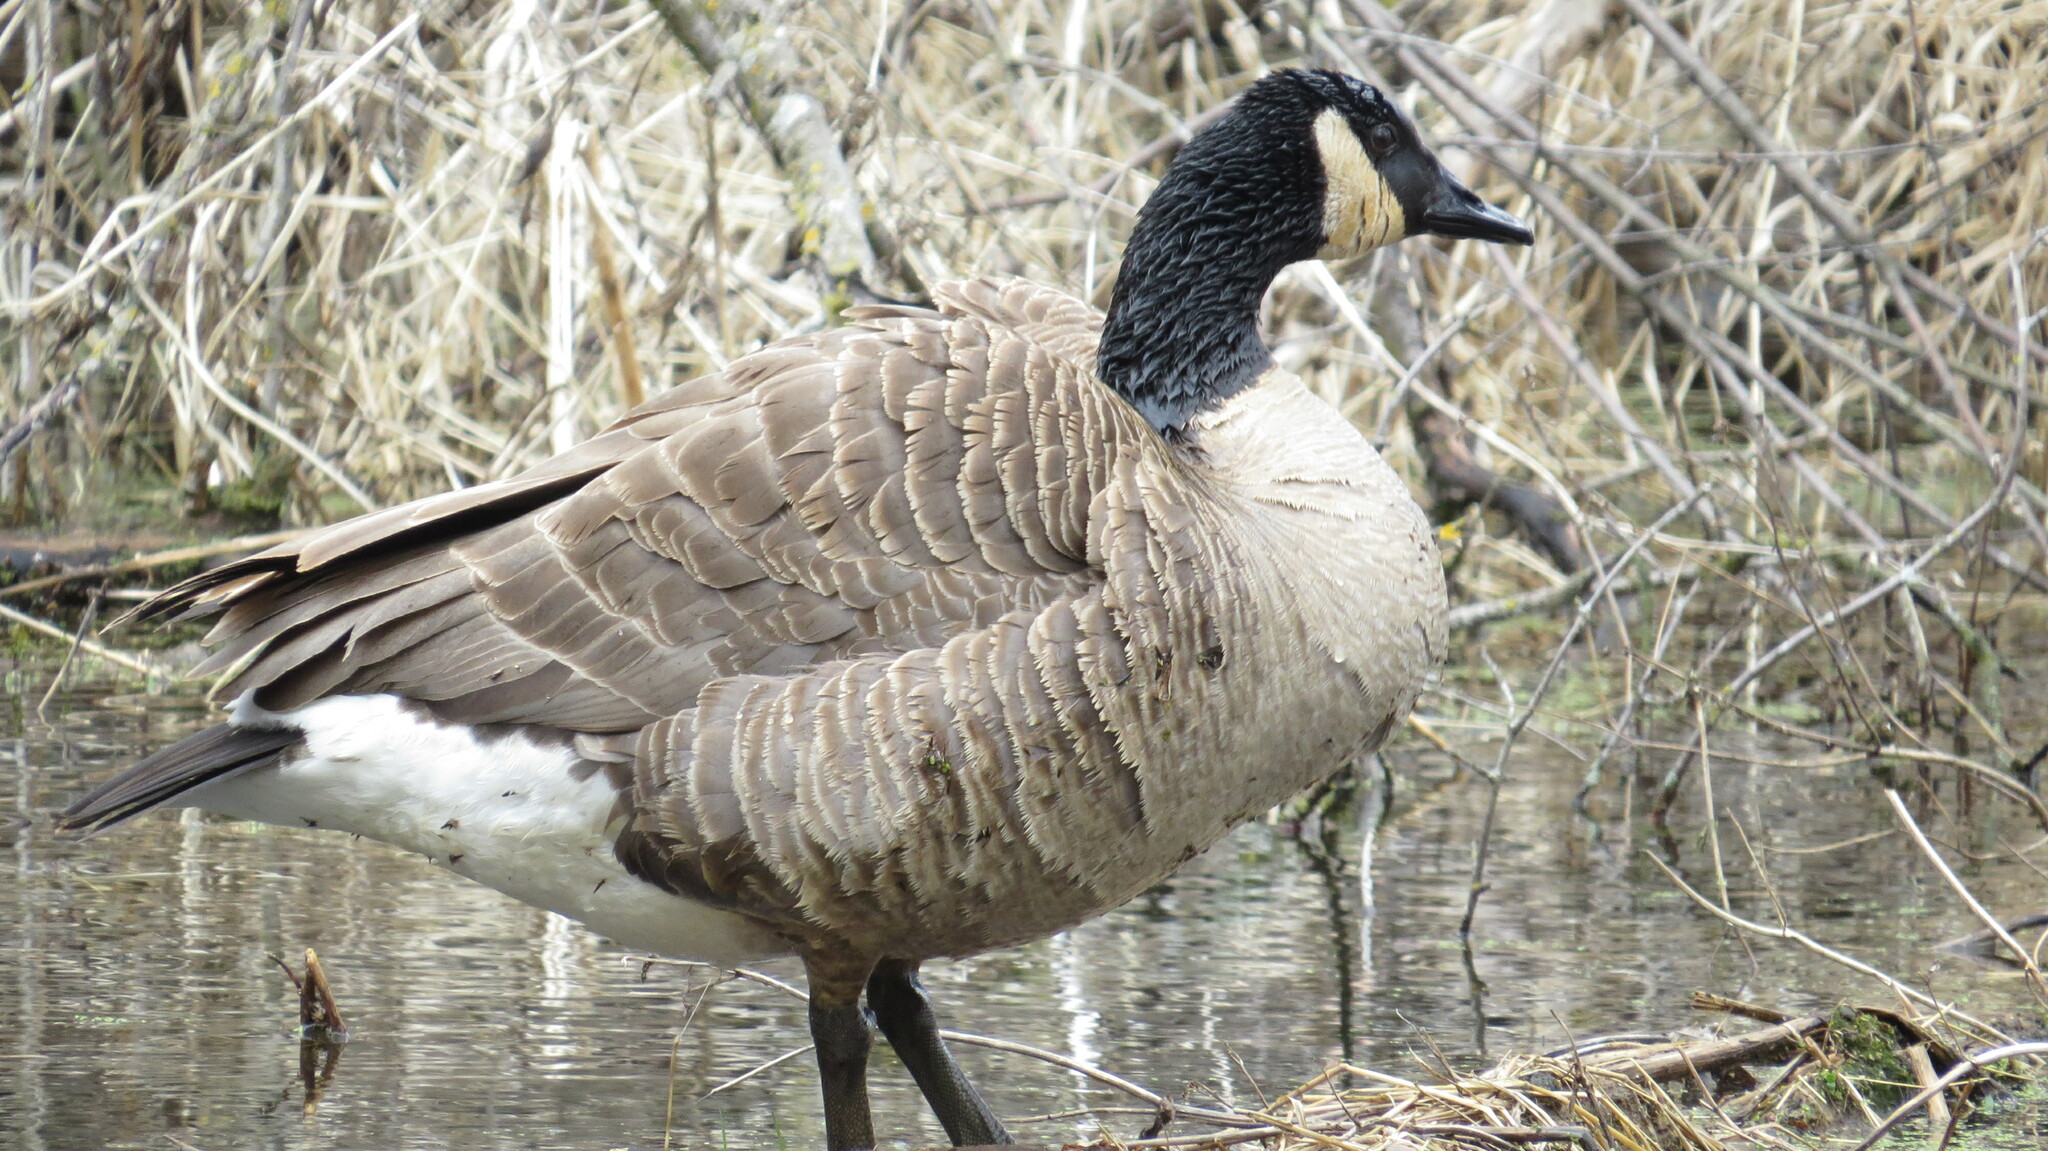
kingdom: Animalia
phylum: Chordata
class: Aves
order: Anseriformes
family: Anatidae
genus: Branta
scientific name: Branta canadensis
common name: Canada goose
